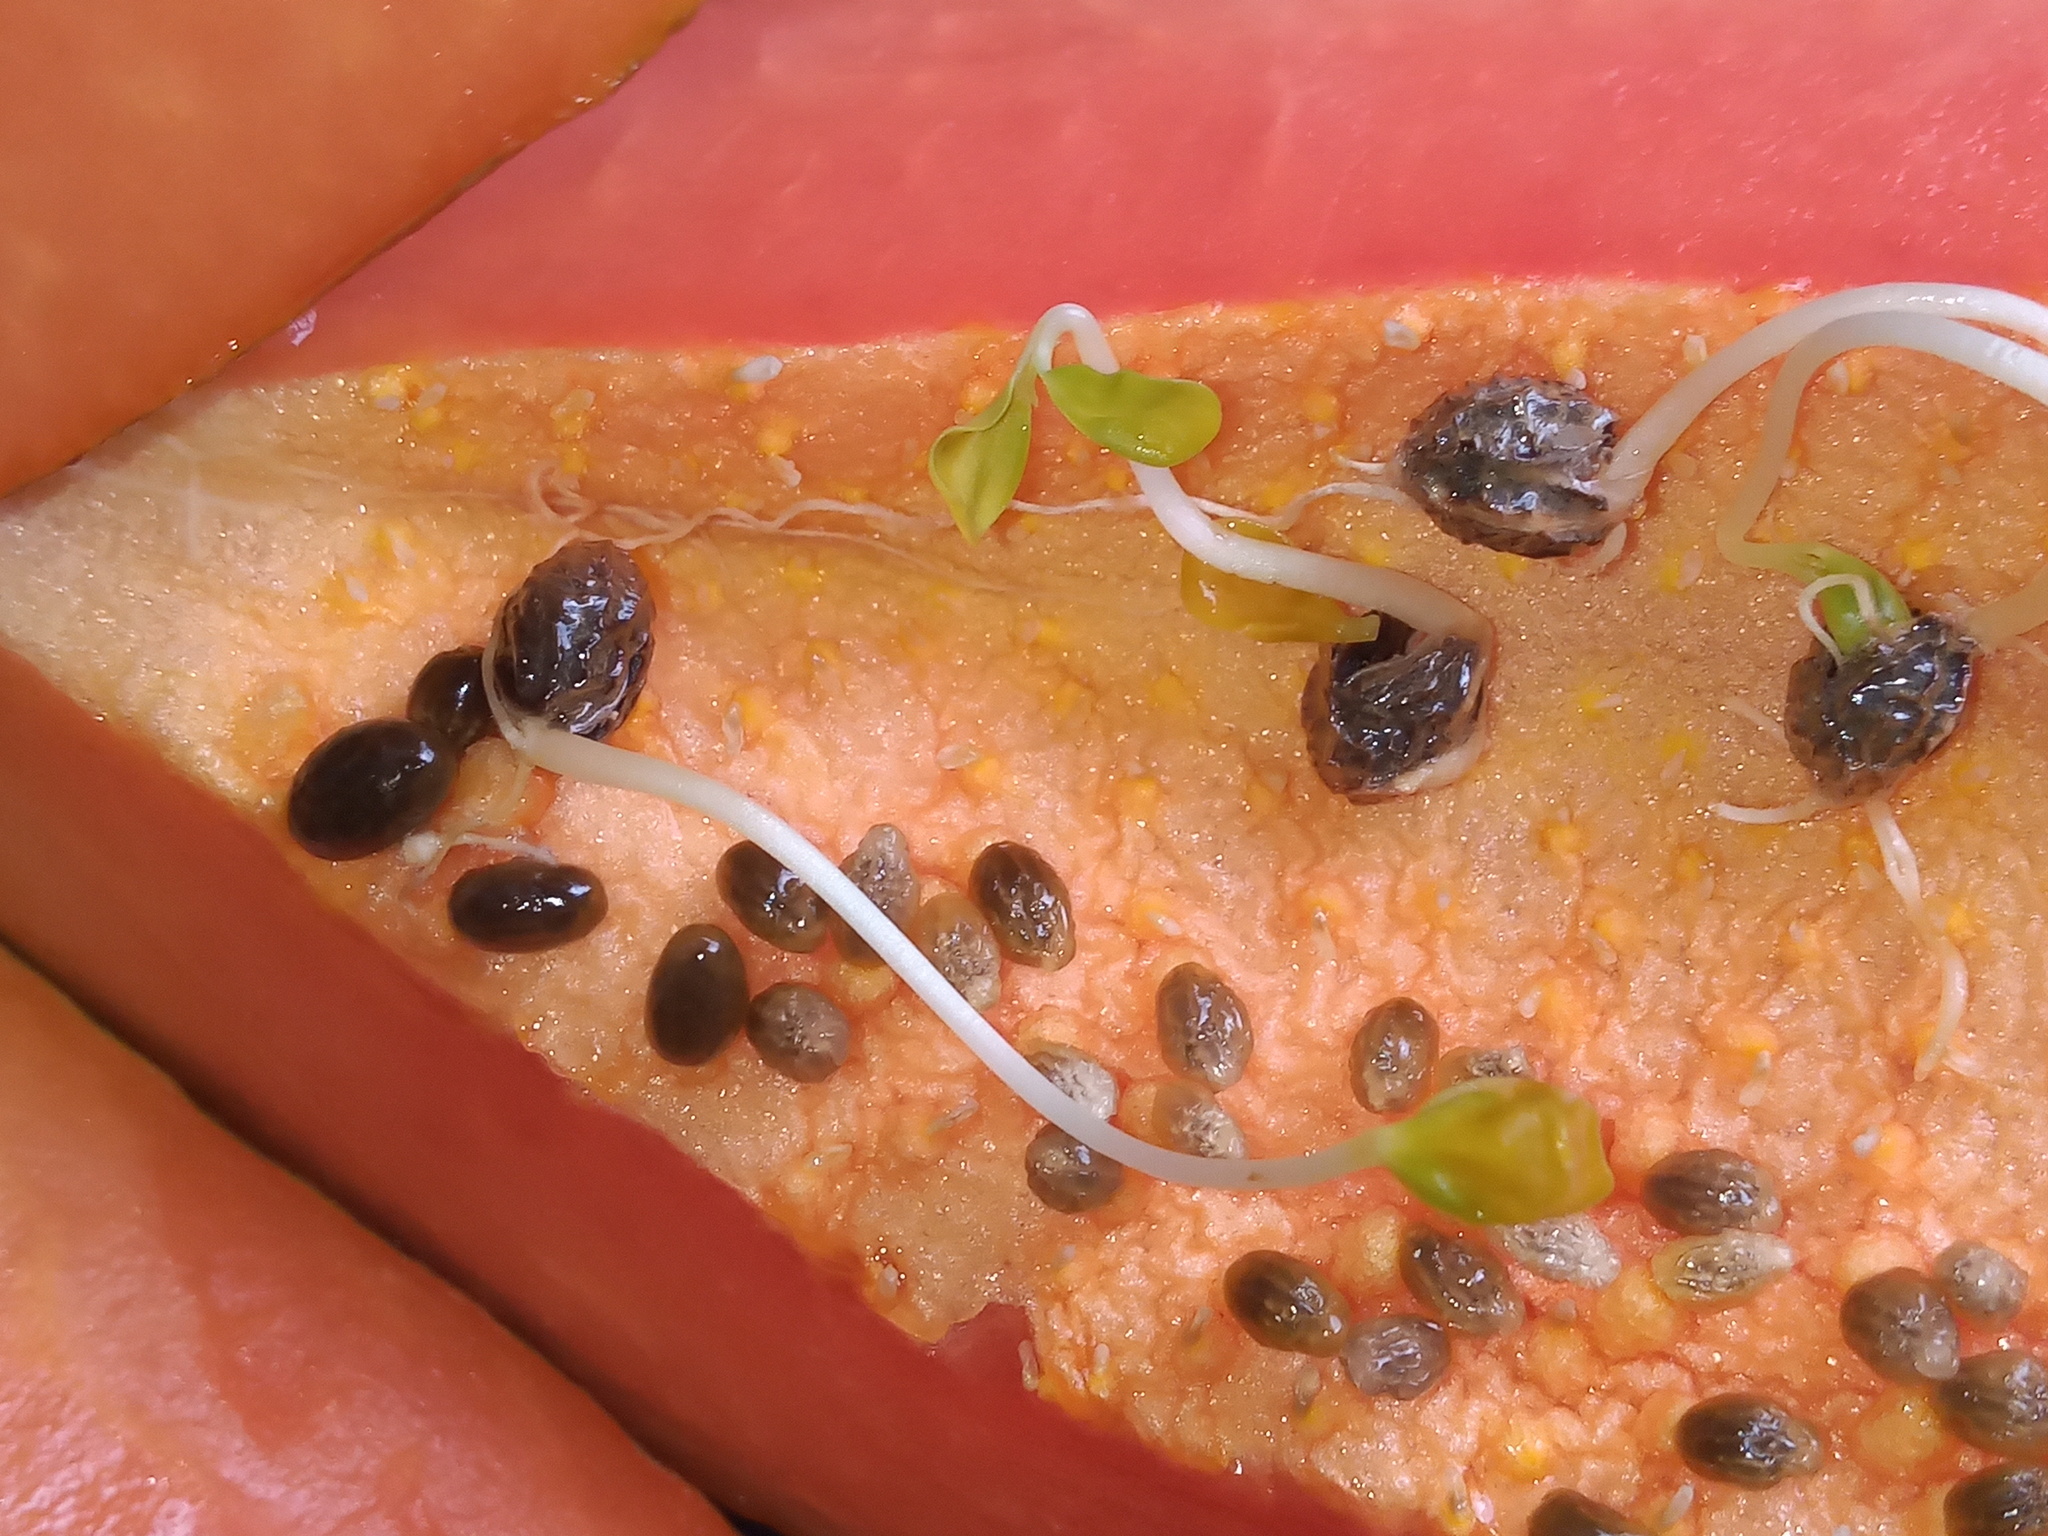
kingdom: Plantae
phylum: Tracheophyta
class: Magnoliopsida
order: Brassicales
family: Caricaceae
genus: Carica
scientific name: Carica papaya
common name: Papaya
